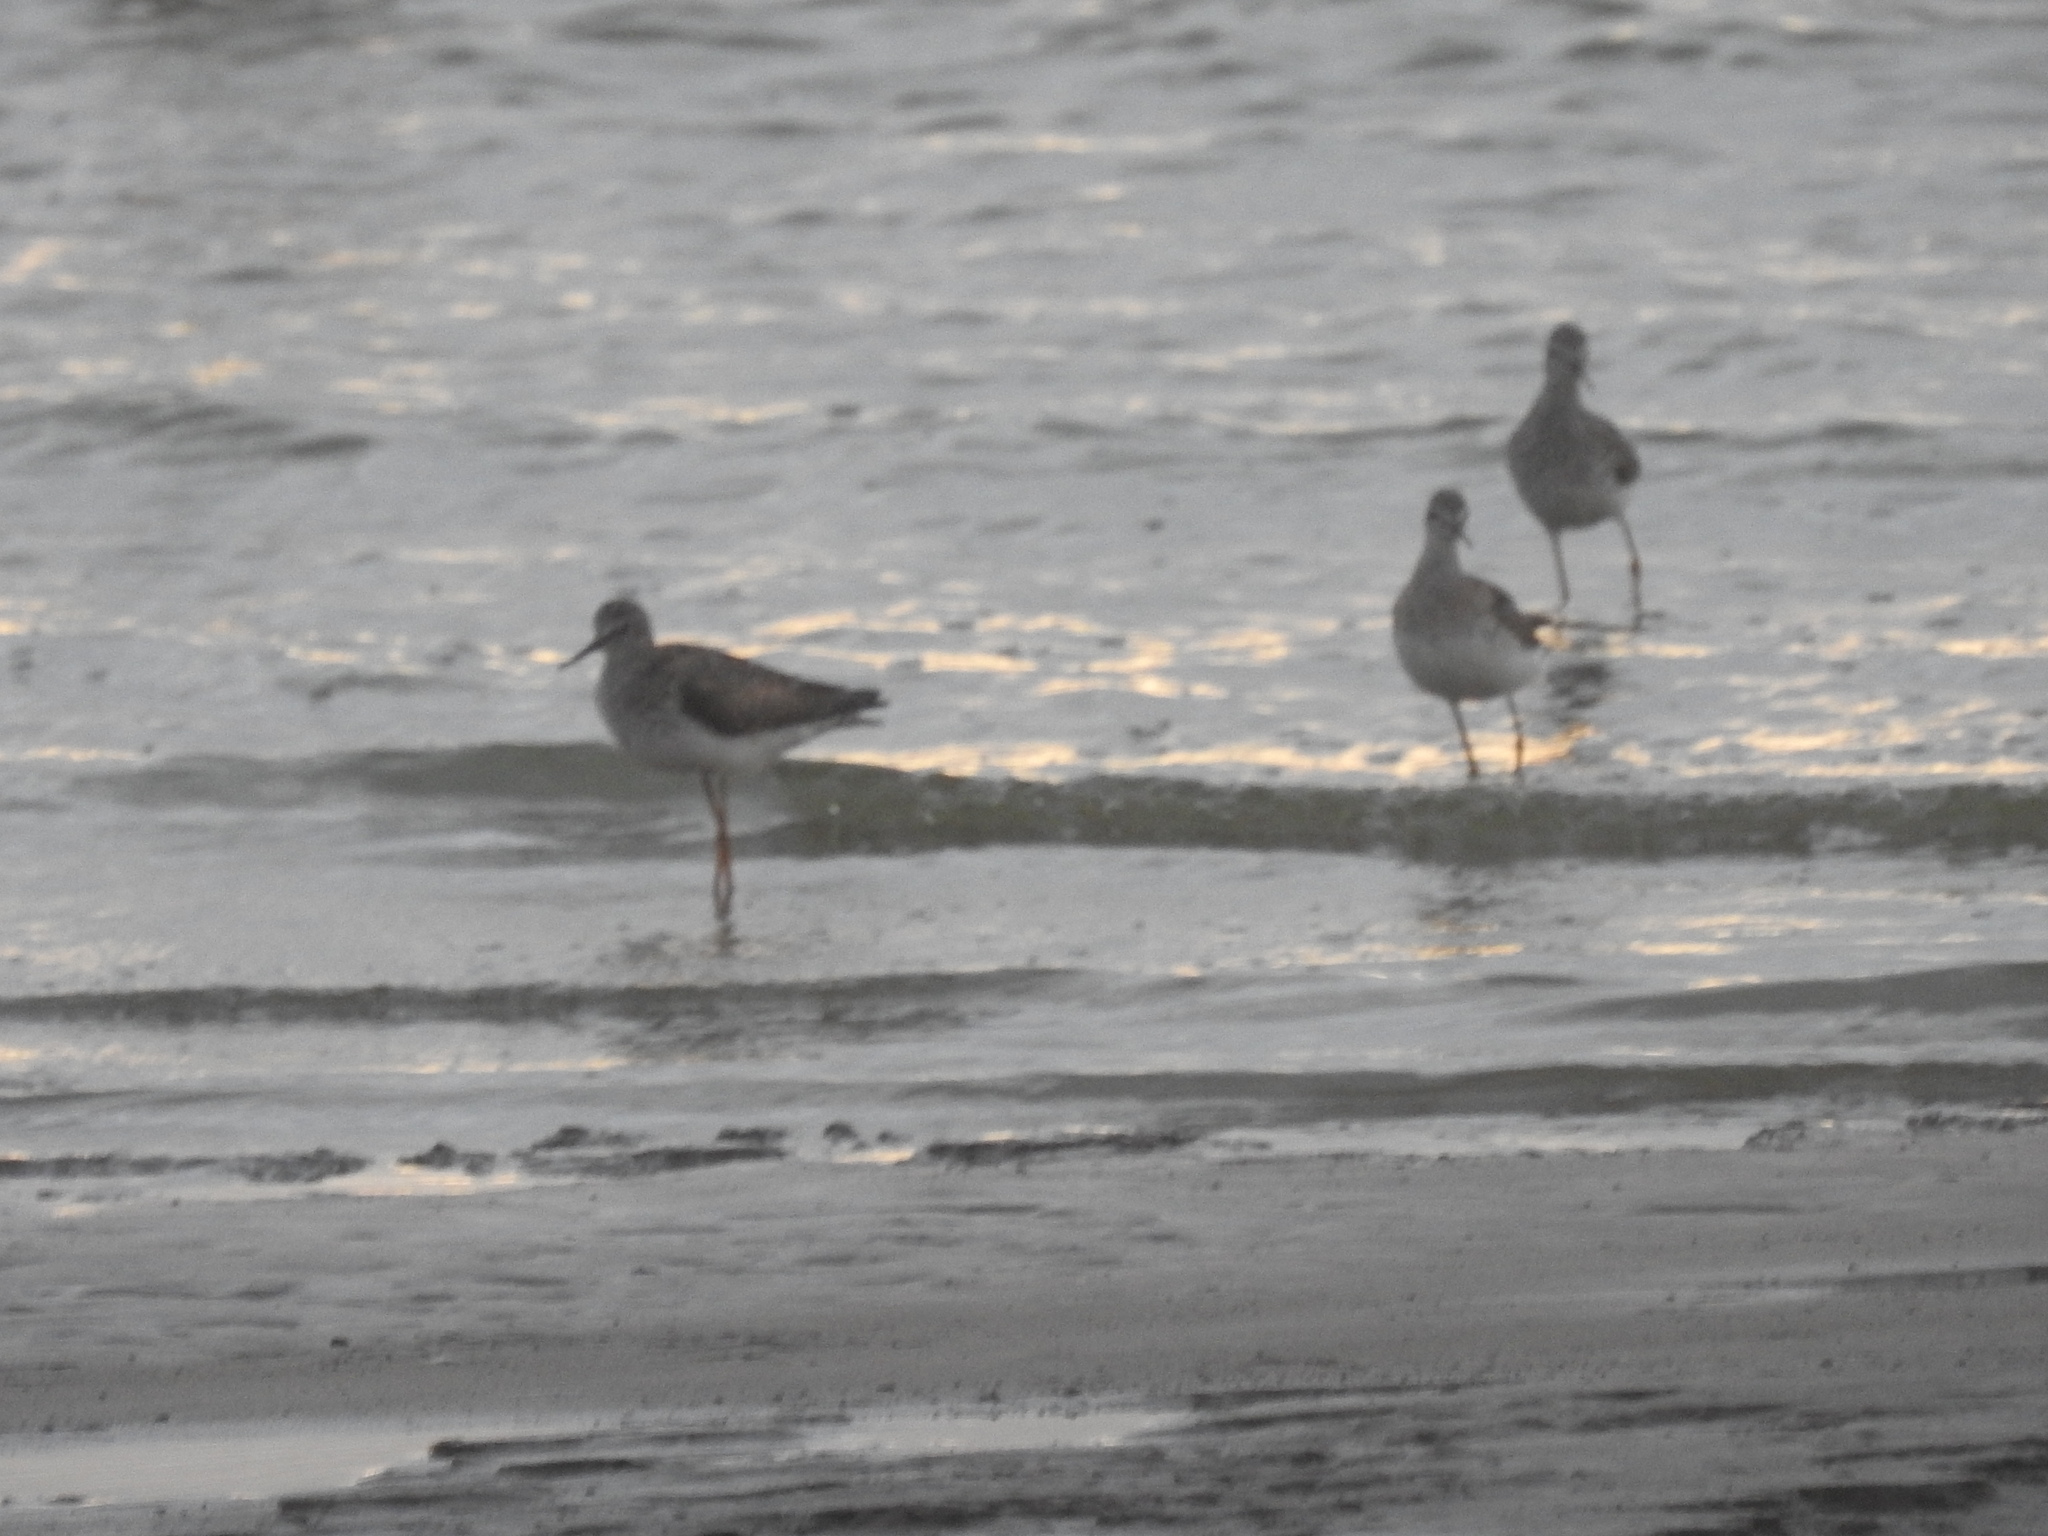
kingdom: Animalia
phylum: Chordata
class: Aves
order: Charadriiformes
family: Scolopacidae
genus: Tringa
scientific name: Tringa flavipes
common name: Lesser yellowlegs
